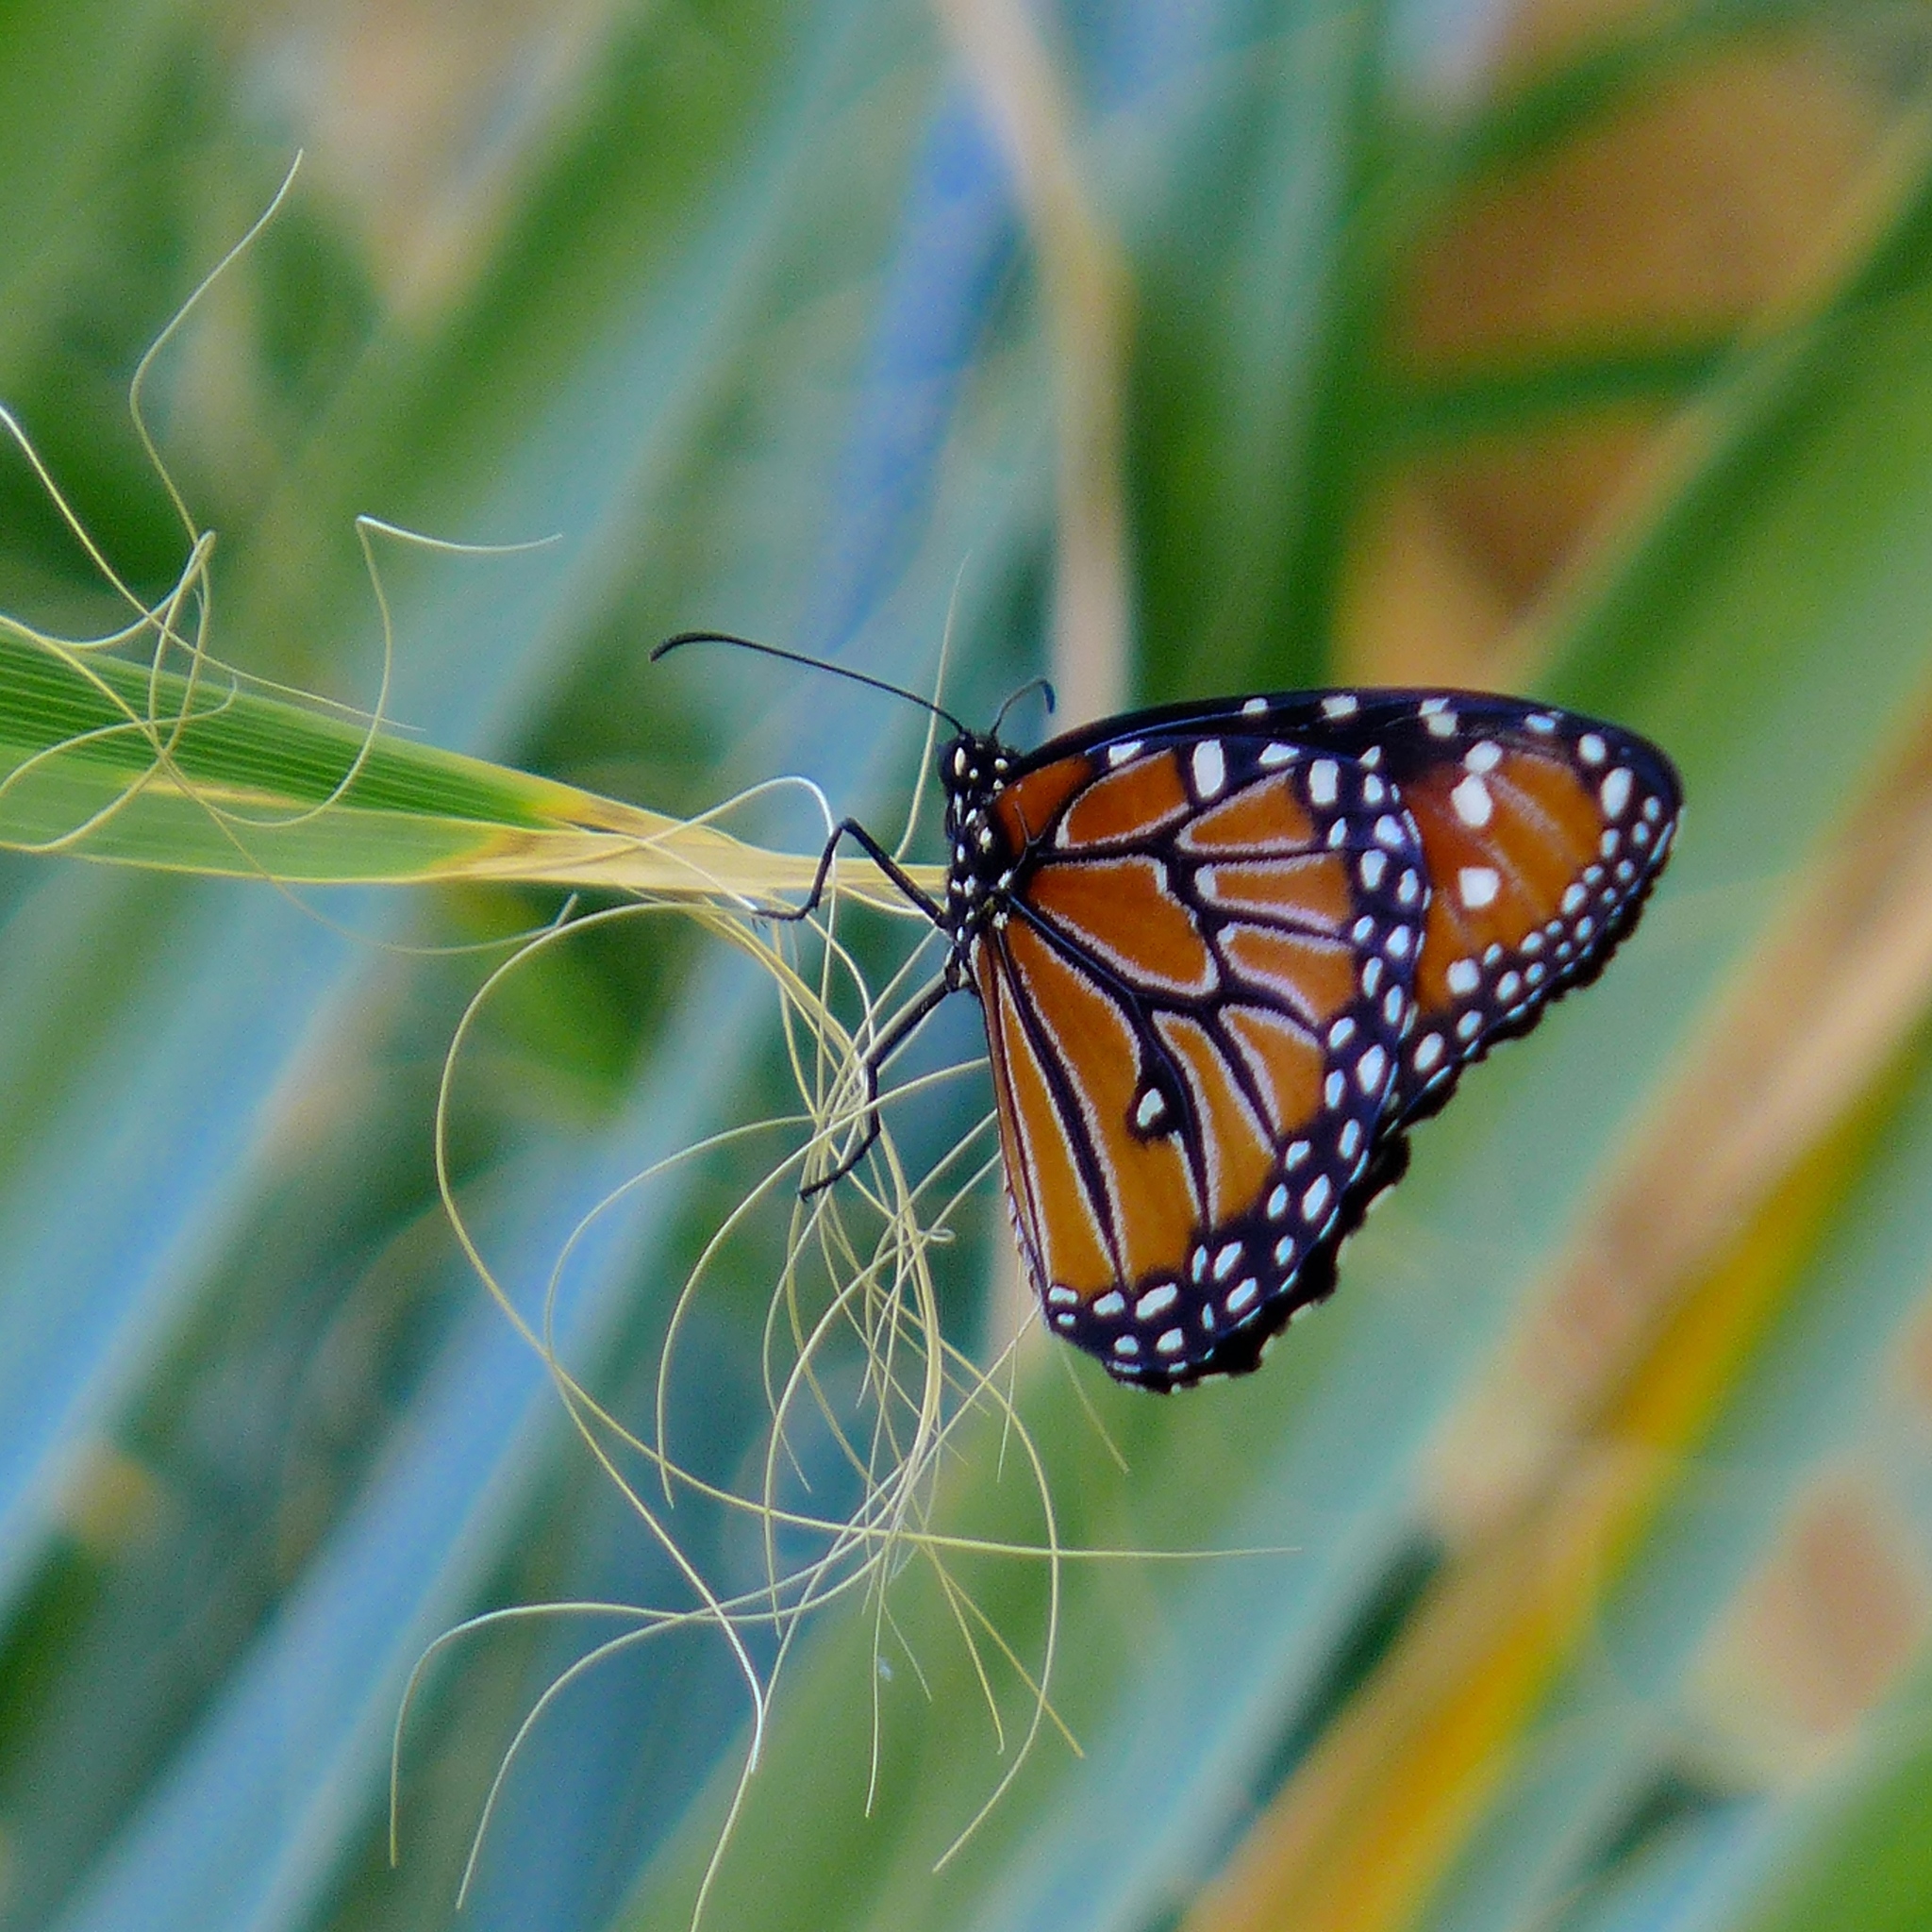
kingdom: Animalia
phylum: Arthropoda
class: Insecta
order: Lepidoptera
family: Nymphalidae
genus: Danaus
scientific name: Danaus gilippus
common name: Queen
